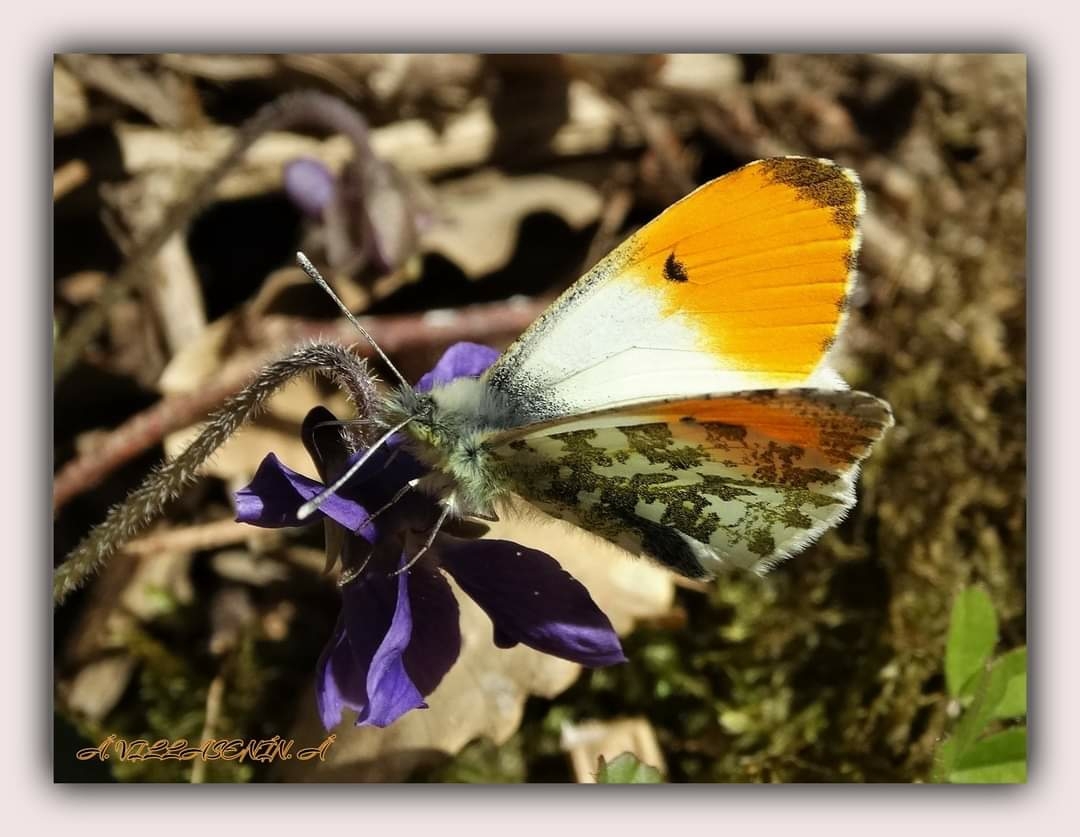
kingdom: Animalia
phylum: Arthropoda
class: Insecta
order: Lepidoptera
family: Pieridae
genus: Anthocharis
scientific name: Anthocharis cardamines
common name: Orange-tip
